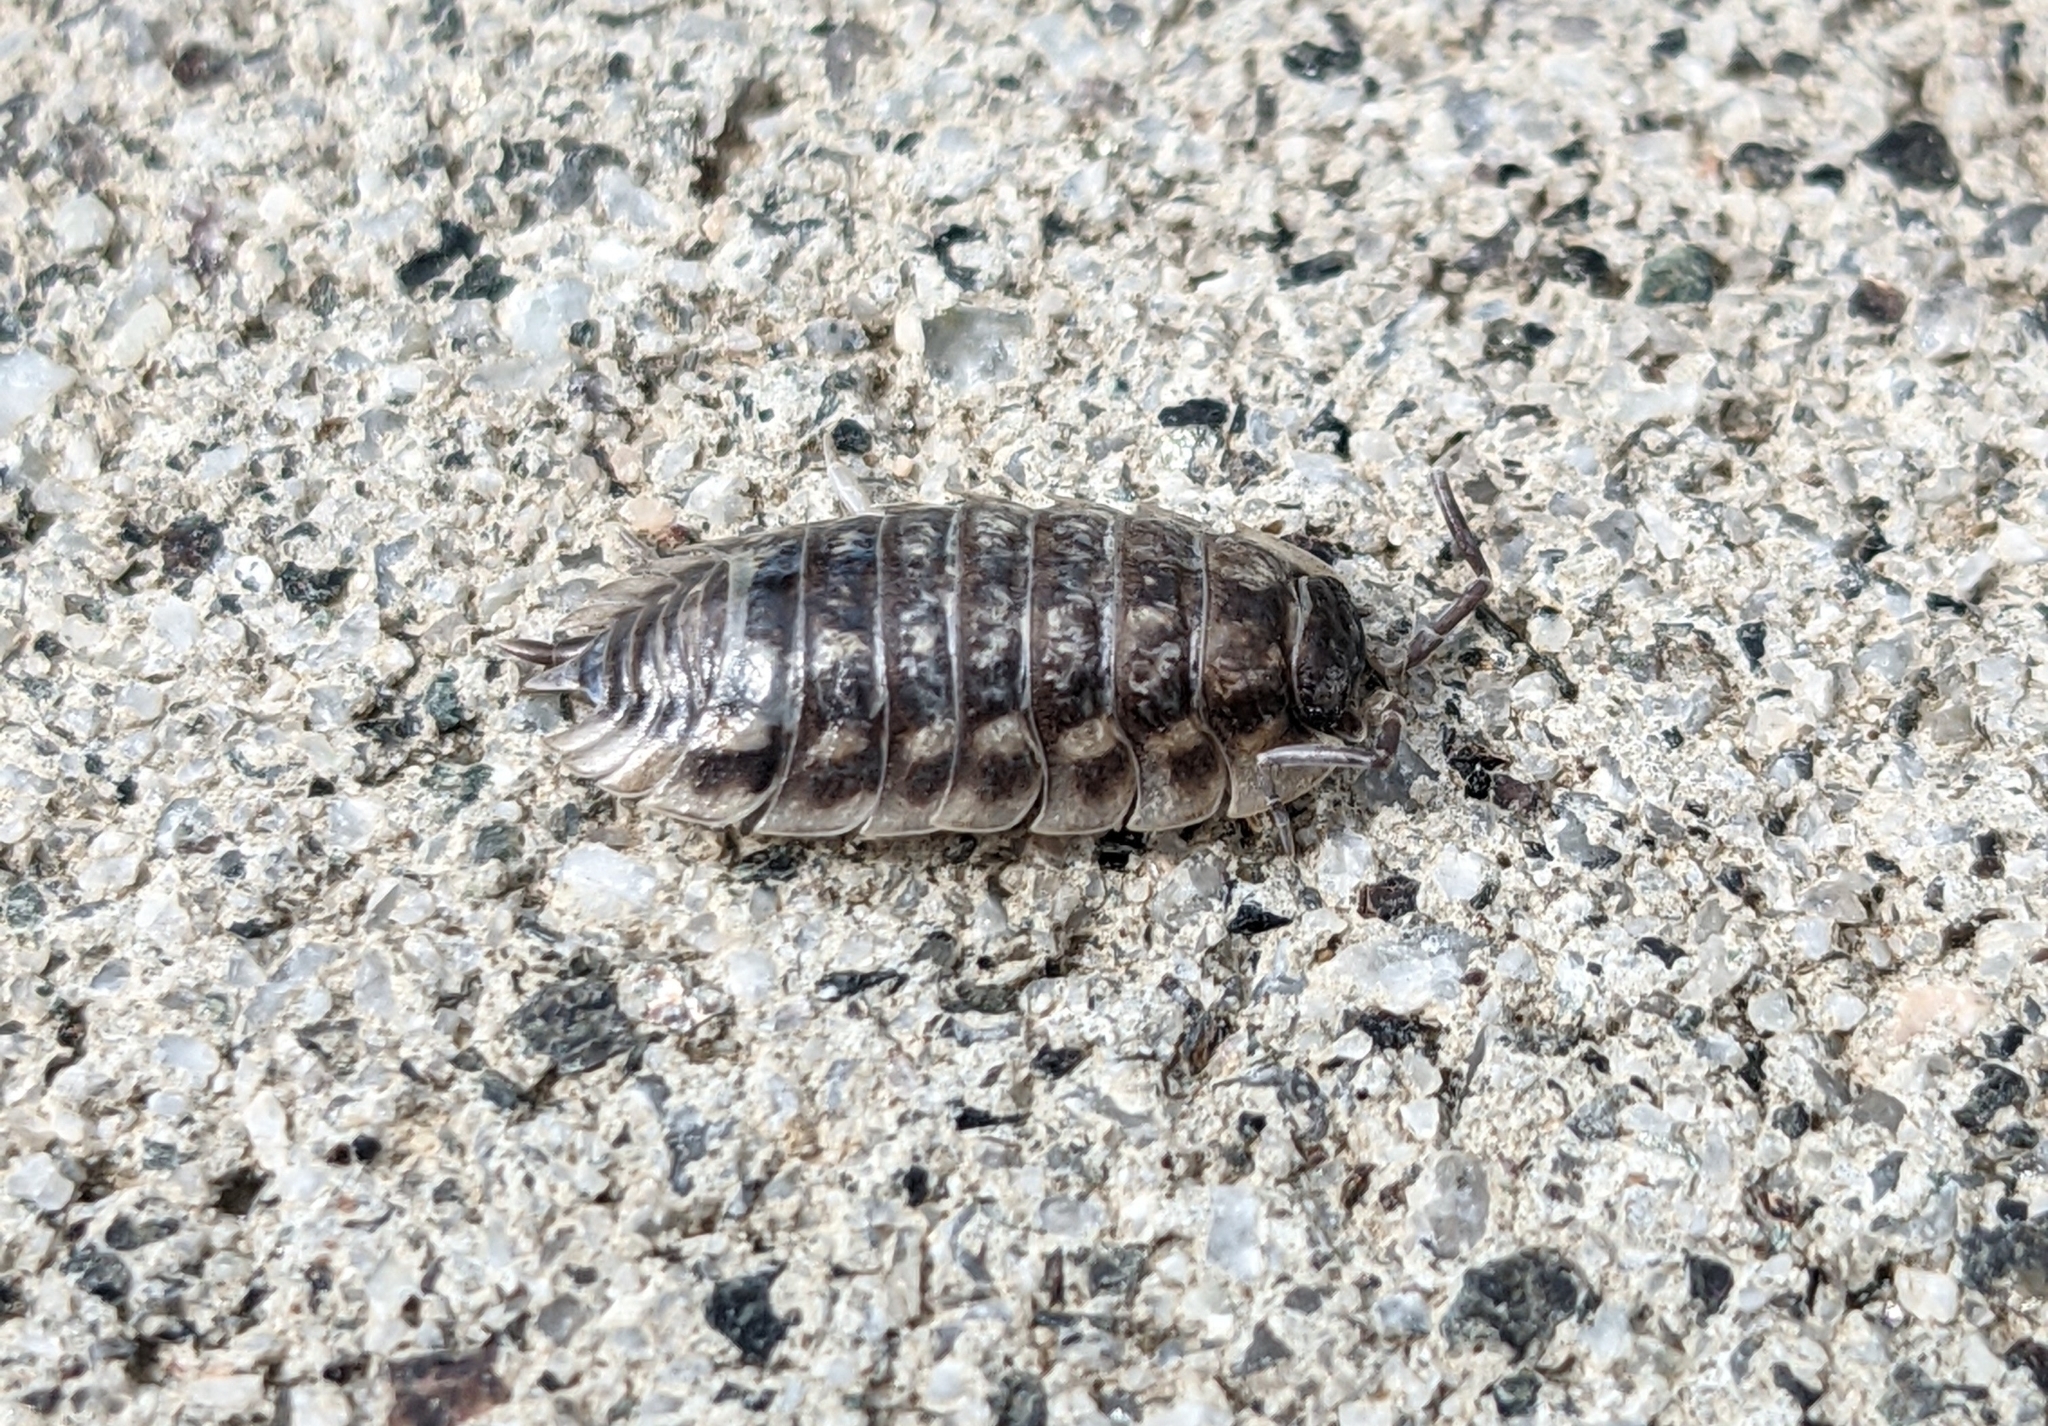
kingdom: Animalia
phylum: Arthropoda
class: Malacostraca
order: Isopoda
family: Oniscidae
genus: Oniscus
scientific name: Oniscus asellus
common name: Common shiny woodlouse
